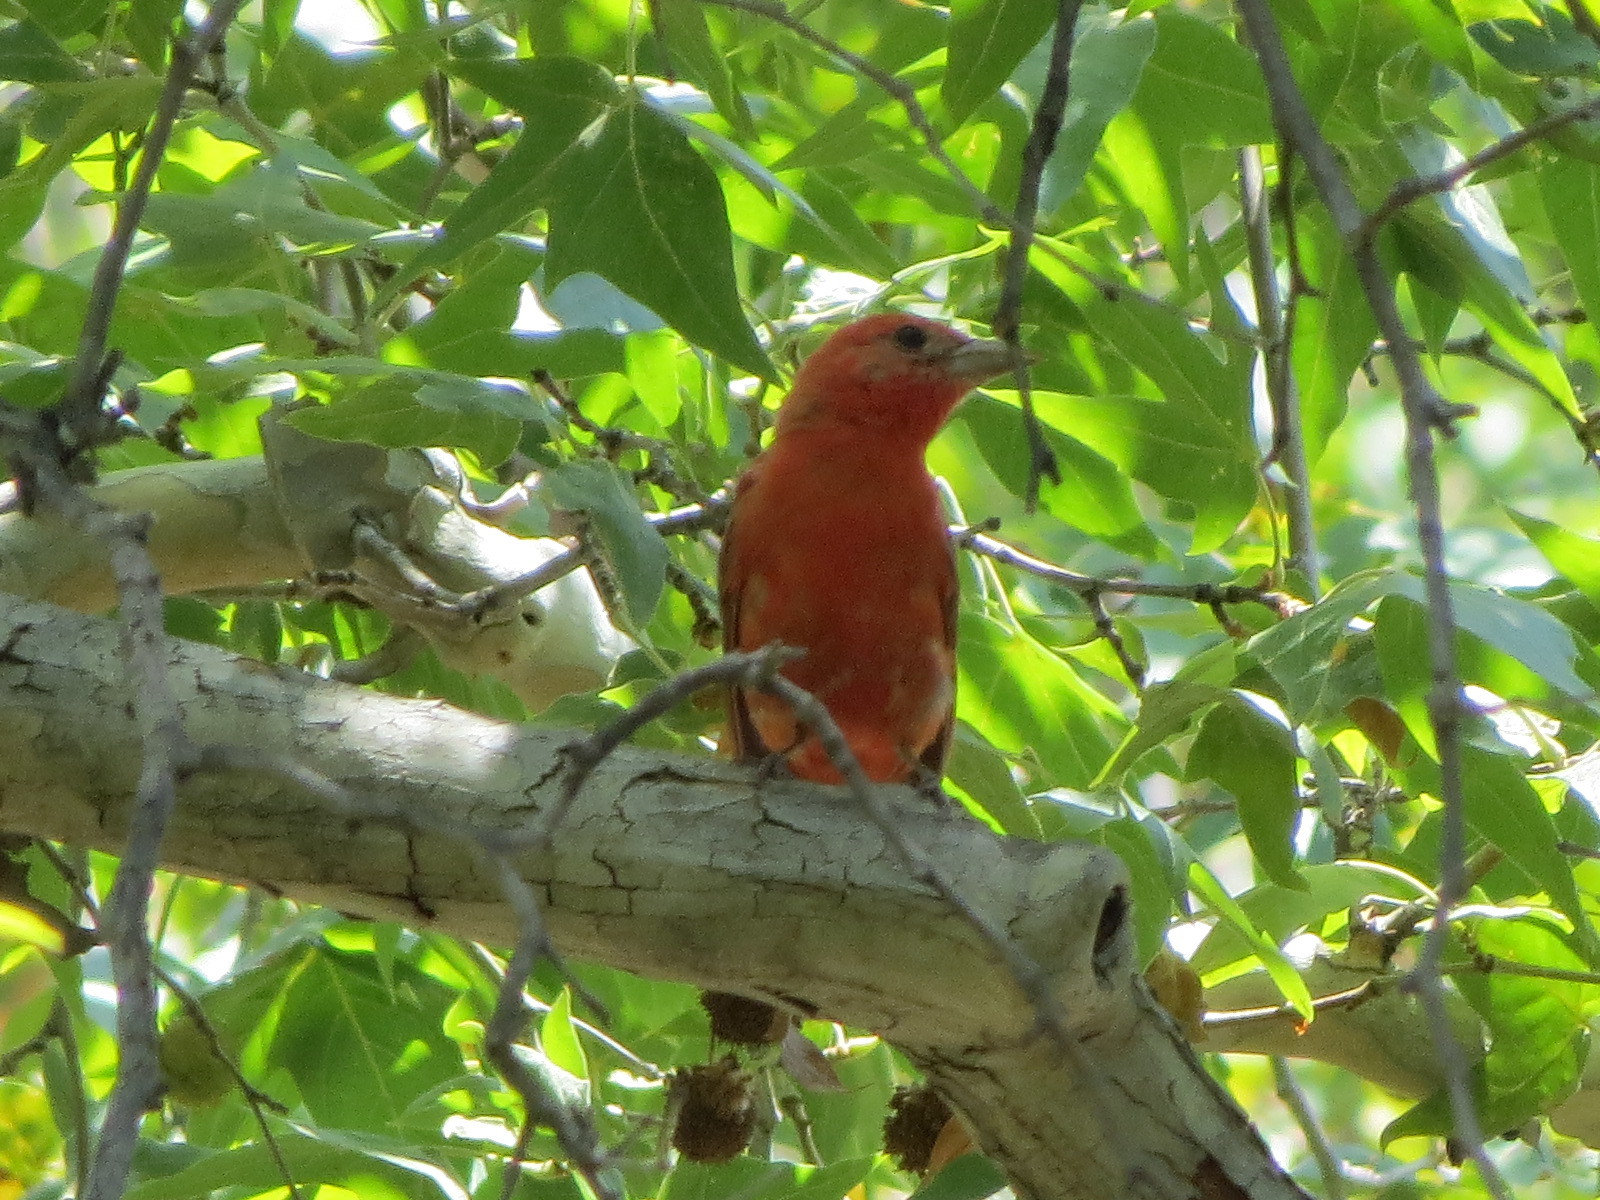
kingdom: Animalia
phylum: Chordata
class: Aves
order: Passeriformes
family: Cardinalidae
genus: Piranga
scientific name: Piranga rubra
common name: Summer tanager
